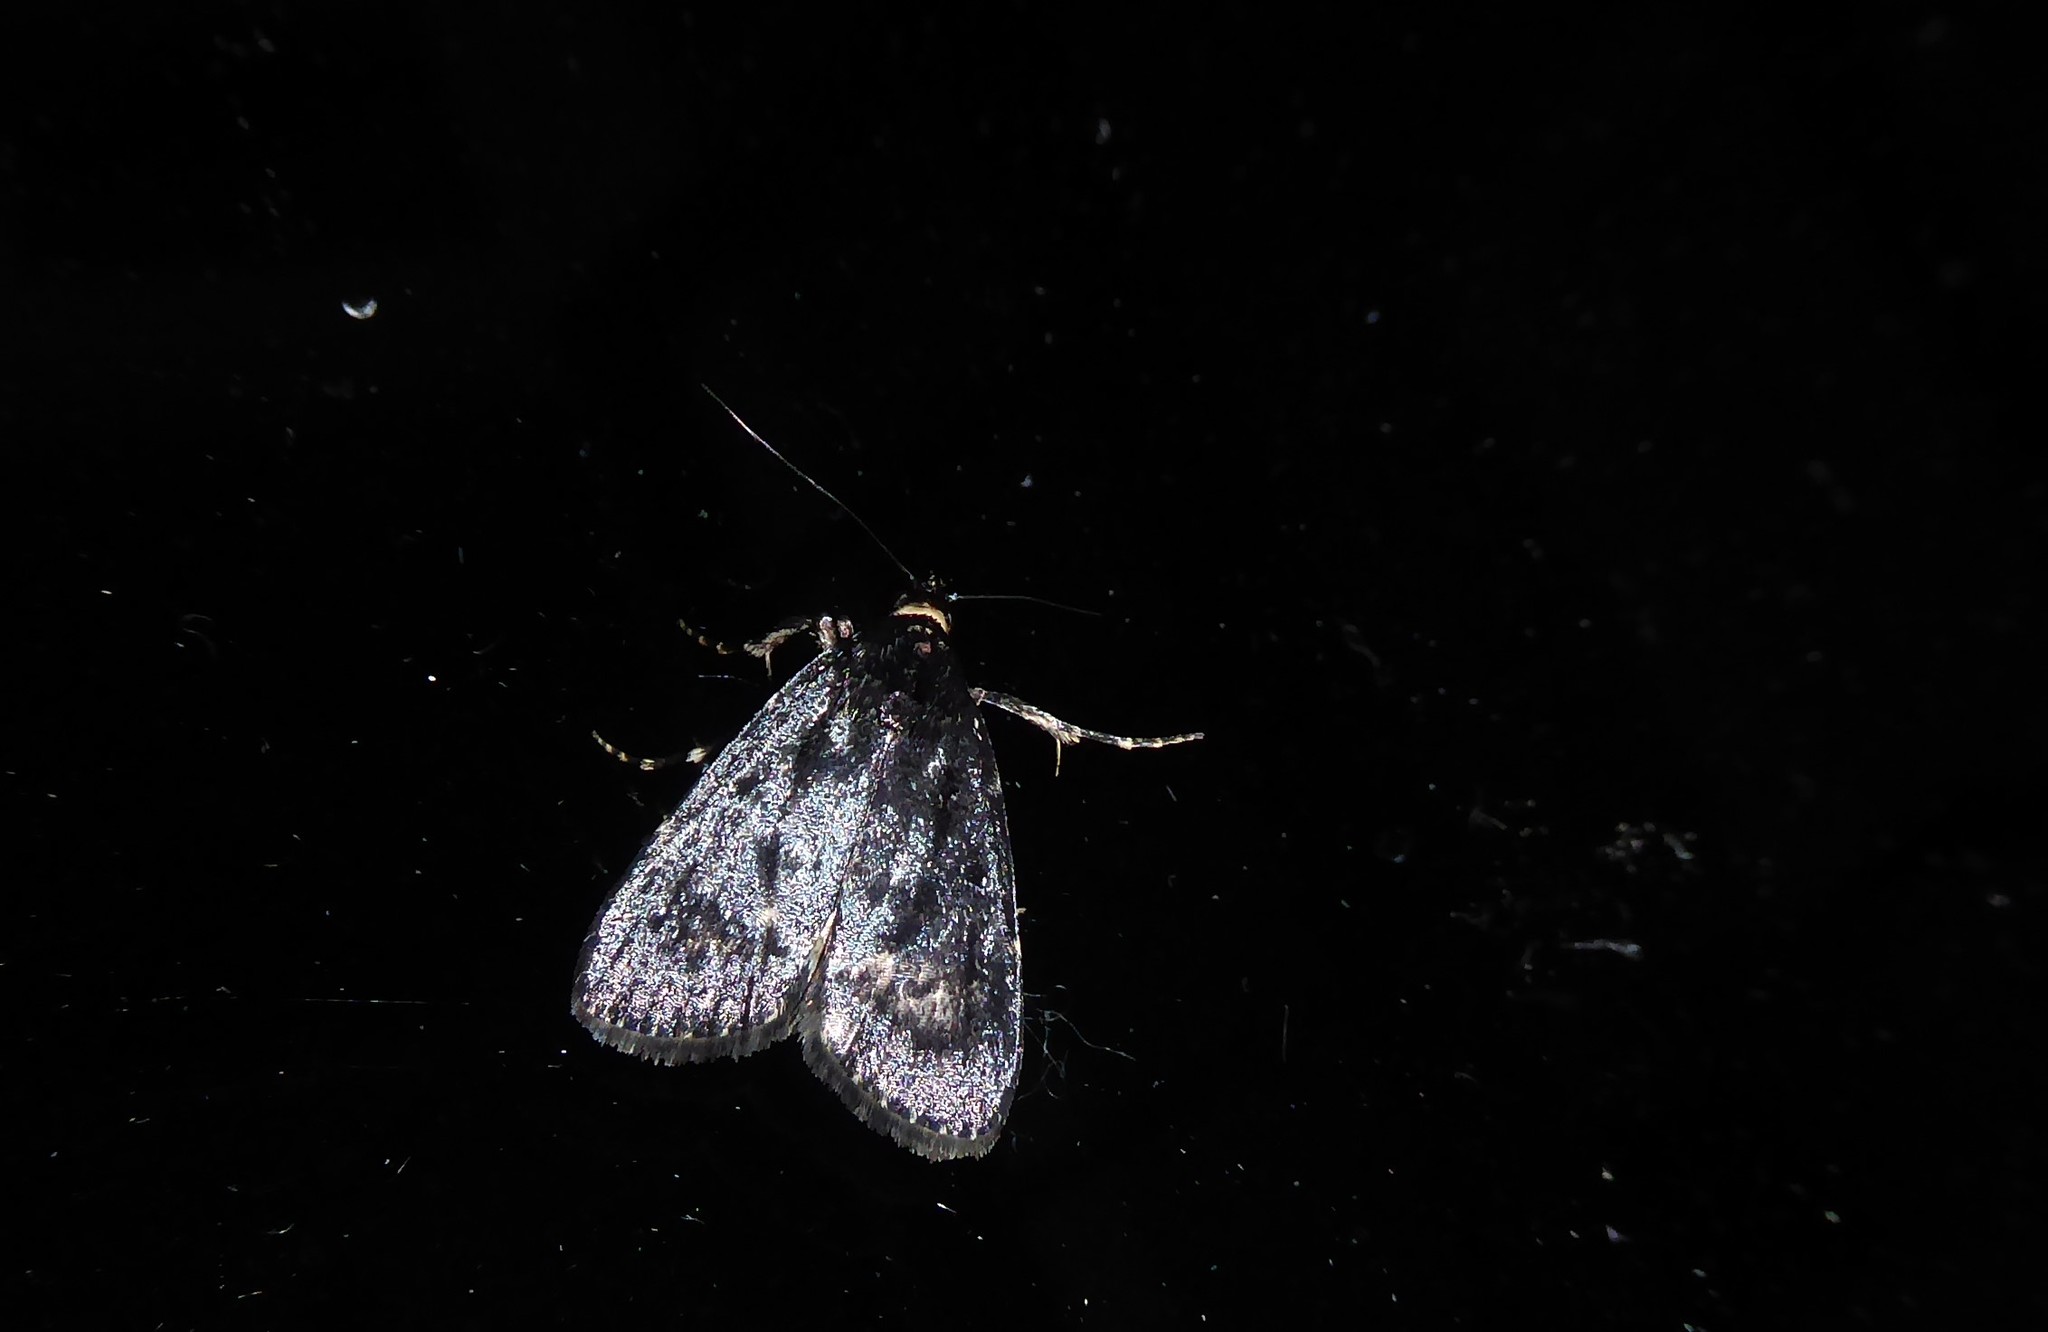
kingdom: Animalia
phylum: Arthropoda
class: Insecta
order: Lepidoptera
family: Pyralidae
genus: Stericta
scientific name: Stericta carbonalis
